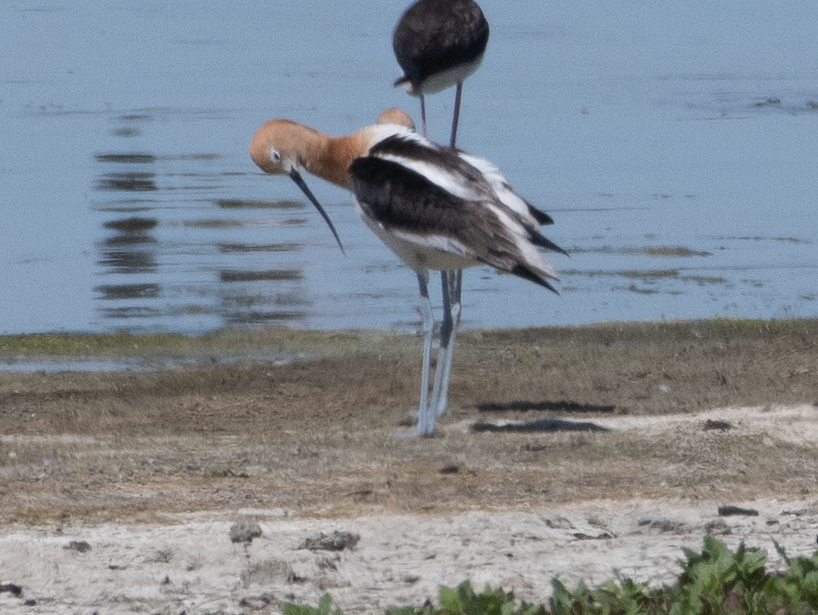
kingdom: Animalia
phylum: Chordata
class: Aves
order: Charadriiformes
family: Recurvirostridae
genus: Recurvirostra
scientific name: Recurvirostra americana
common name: American avocet
